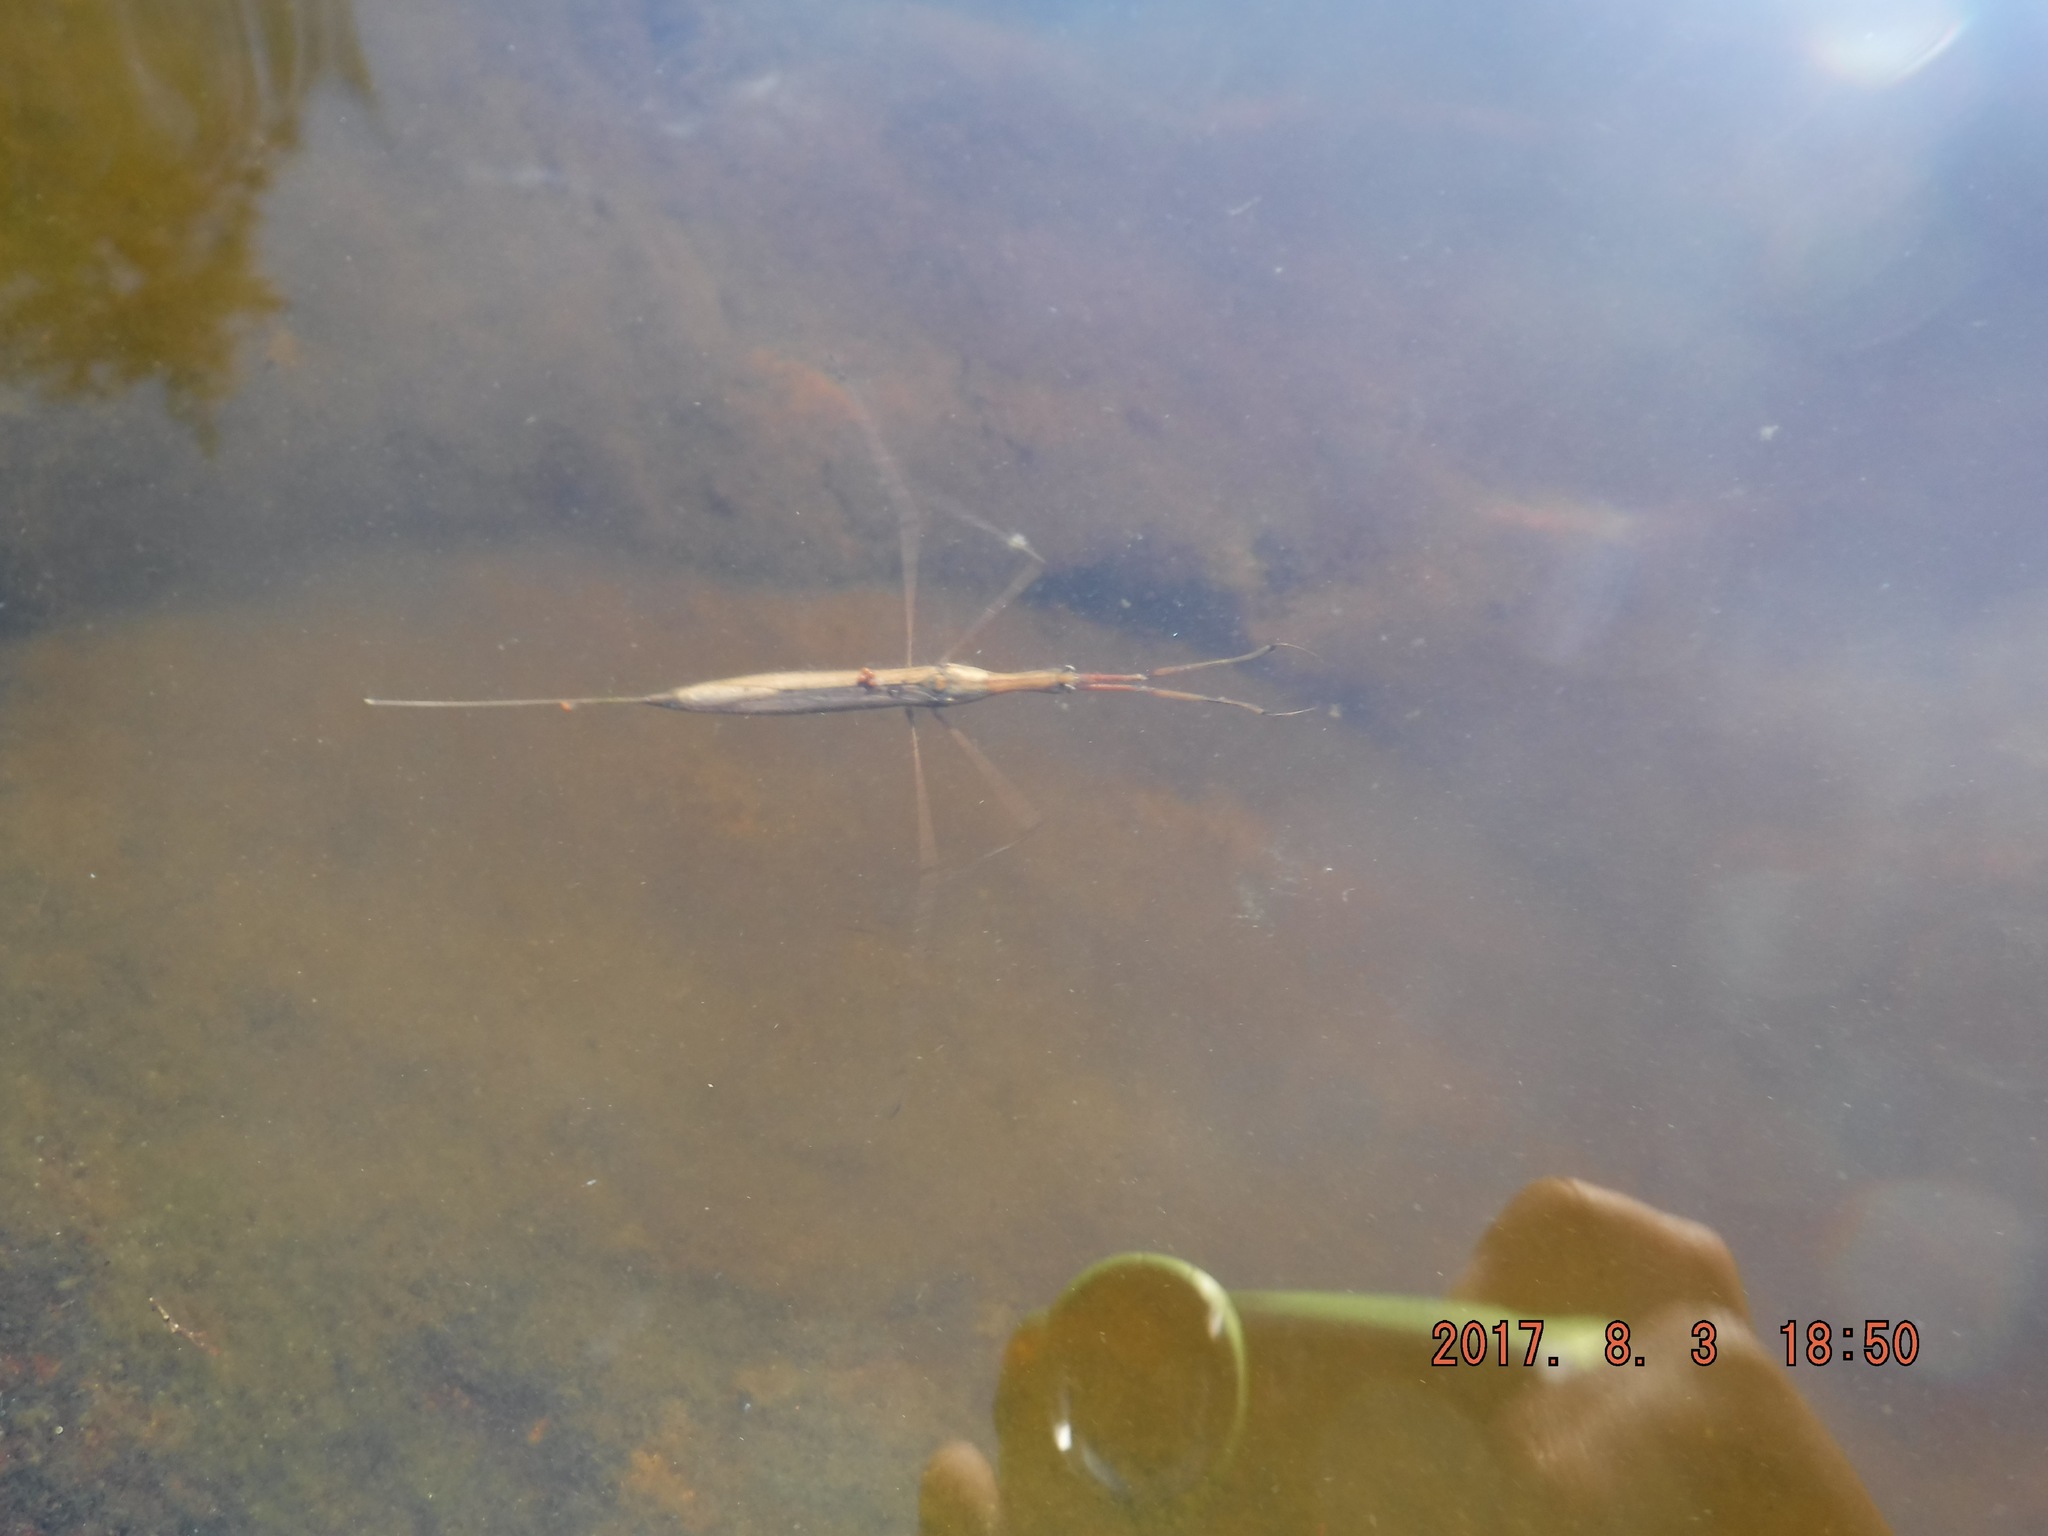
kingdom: Animalia
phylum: Arthropoda
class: Insecta
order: Hemiptera
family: Nepidae
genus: Ranatra
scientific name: Ranatra fusca
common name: Brown waterscorpion
